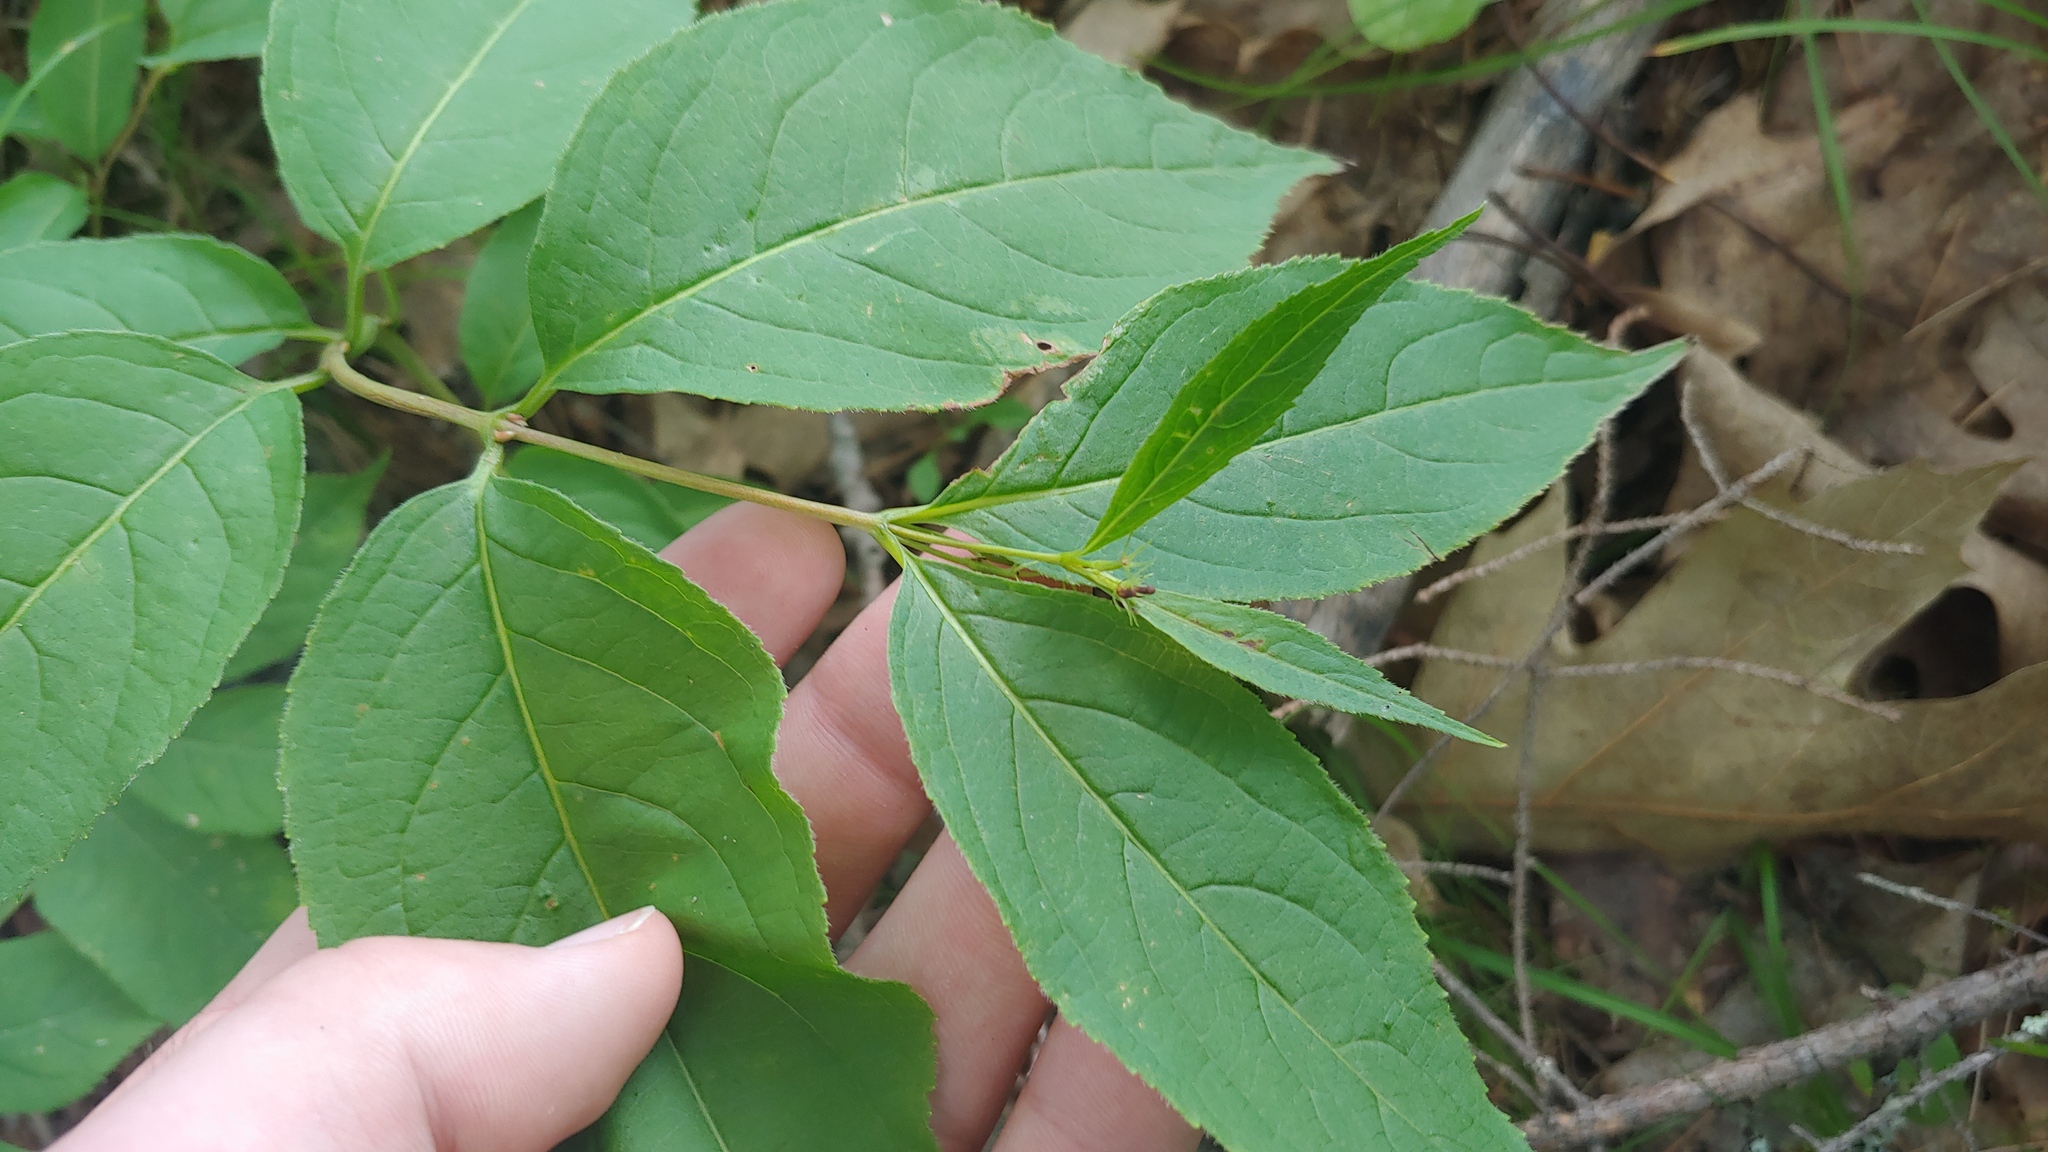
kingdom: Plantae
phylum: Tracheophyta
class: Magnoliopsida
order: Dipsacales
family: Caprifoliaceae
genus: Diervilla
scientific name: Diervilla lonicera
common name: Bush-honeysuckle
